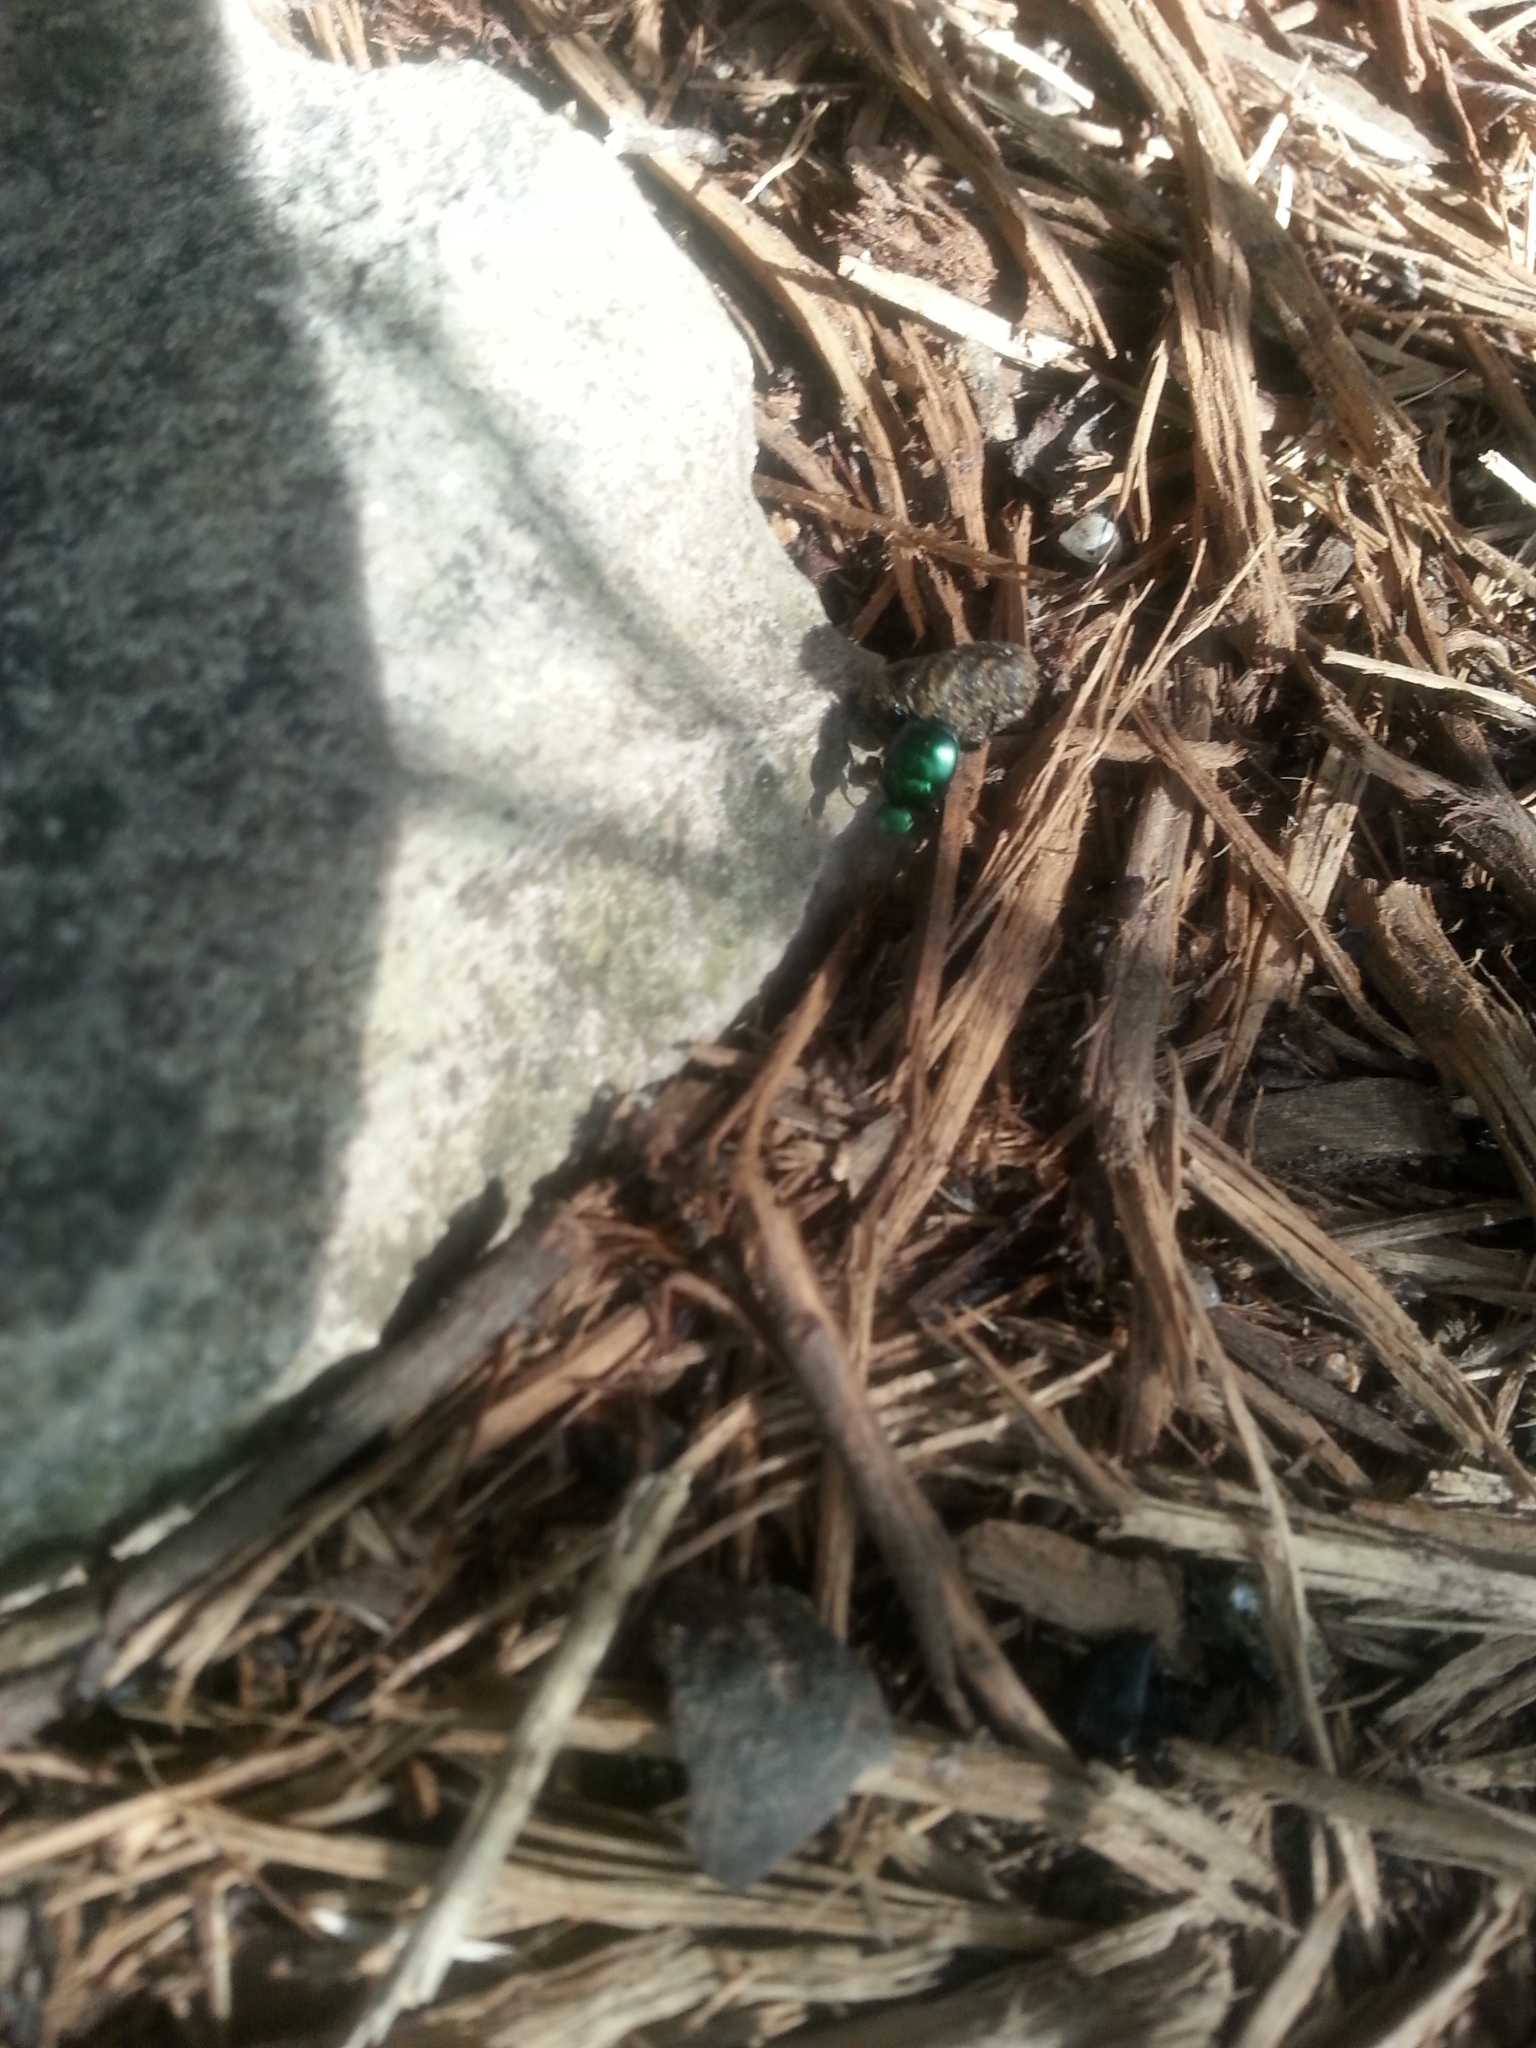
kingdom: Animalia
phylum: Arthropoda
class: Insecta
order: Coleoptera
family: Scarabaeidae
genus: Canthon
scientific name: Canthon viridis
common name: Tumblebug
